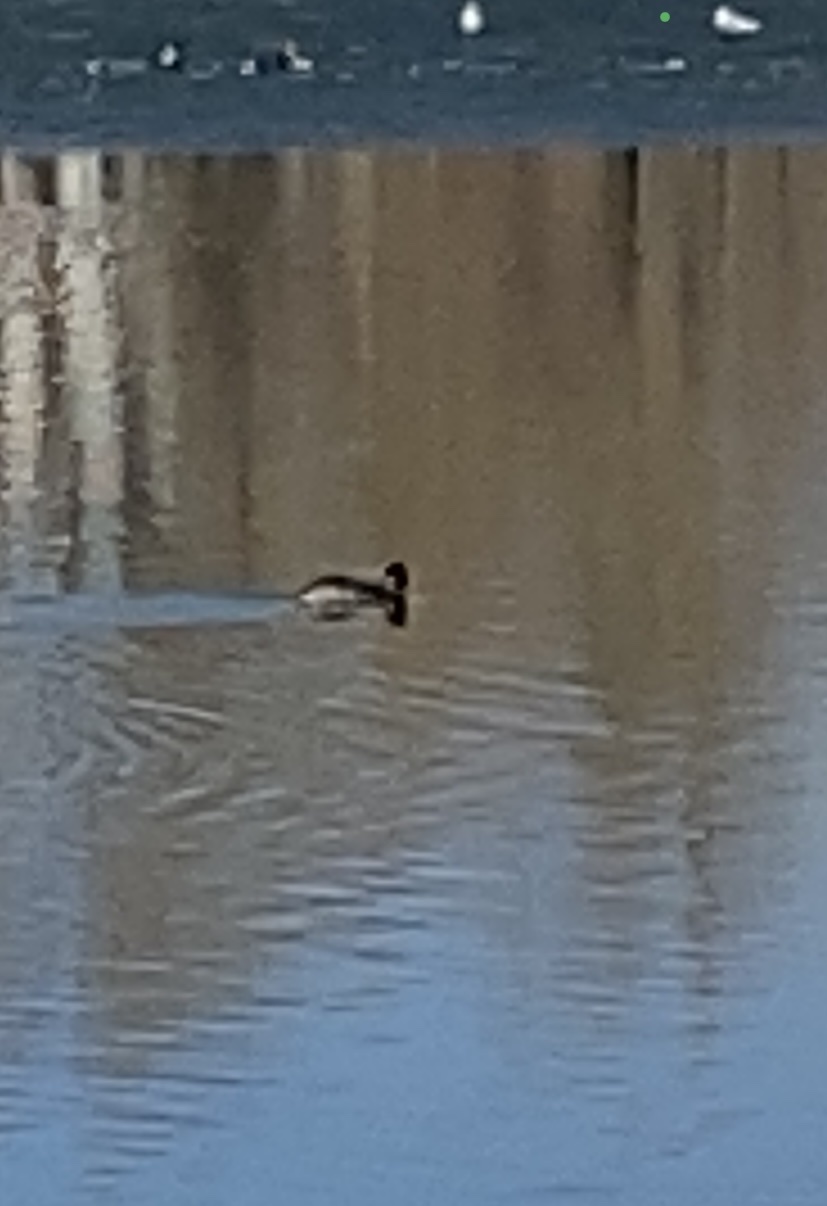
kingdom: Animalia
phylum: Chordata
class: Aves
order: Podicipediformes
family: Podicipedidae
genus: Podiceps
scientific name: Podiceps cristatus
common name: Great crested grebe
